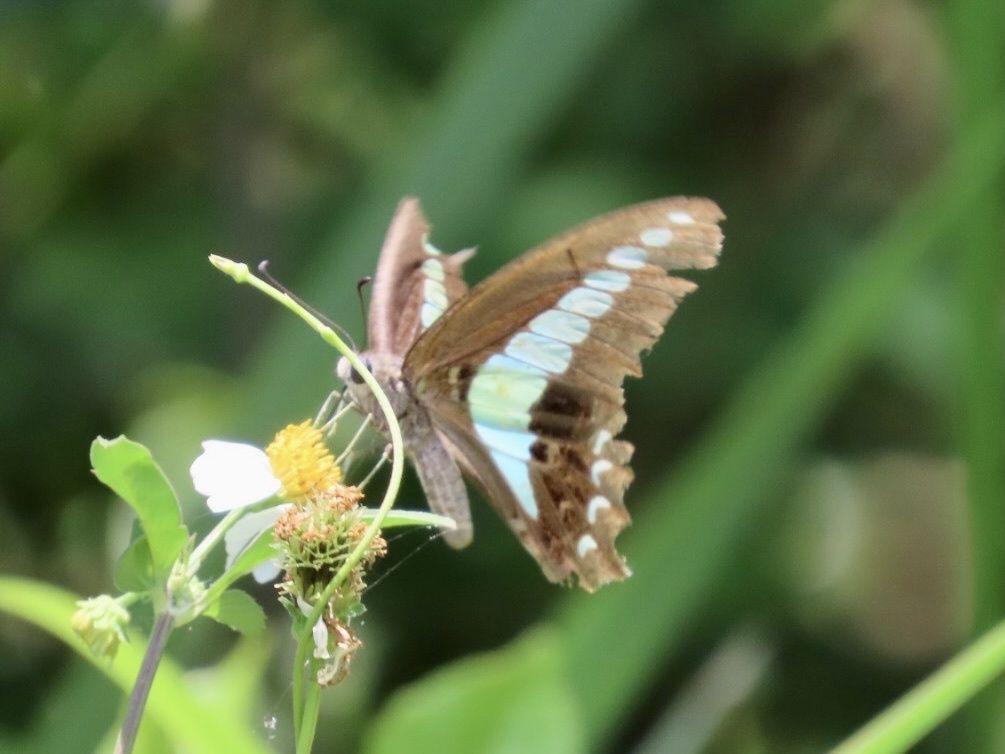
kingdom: Fungi
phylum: Ascomycota
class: Sordariomycetes
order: Microascales
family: Microascaceae
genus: Graphium
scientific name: Graphium sarpedon
